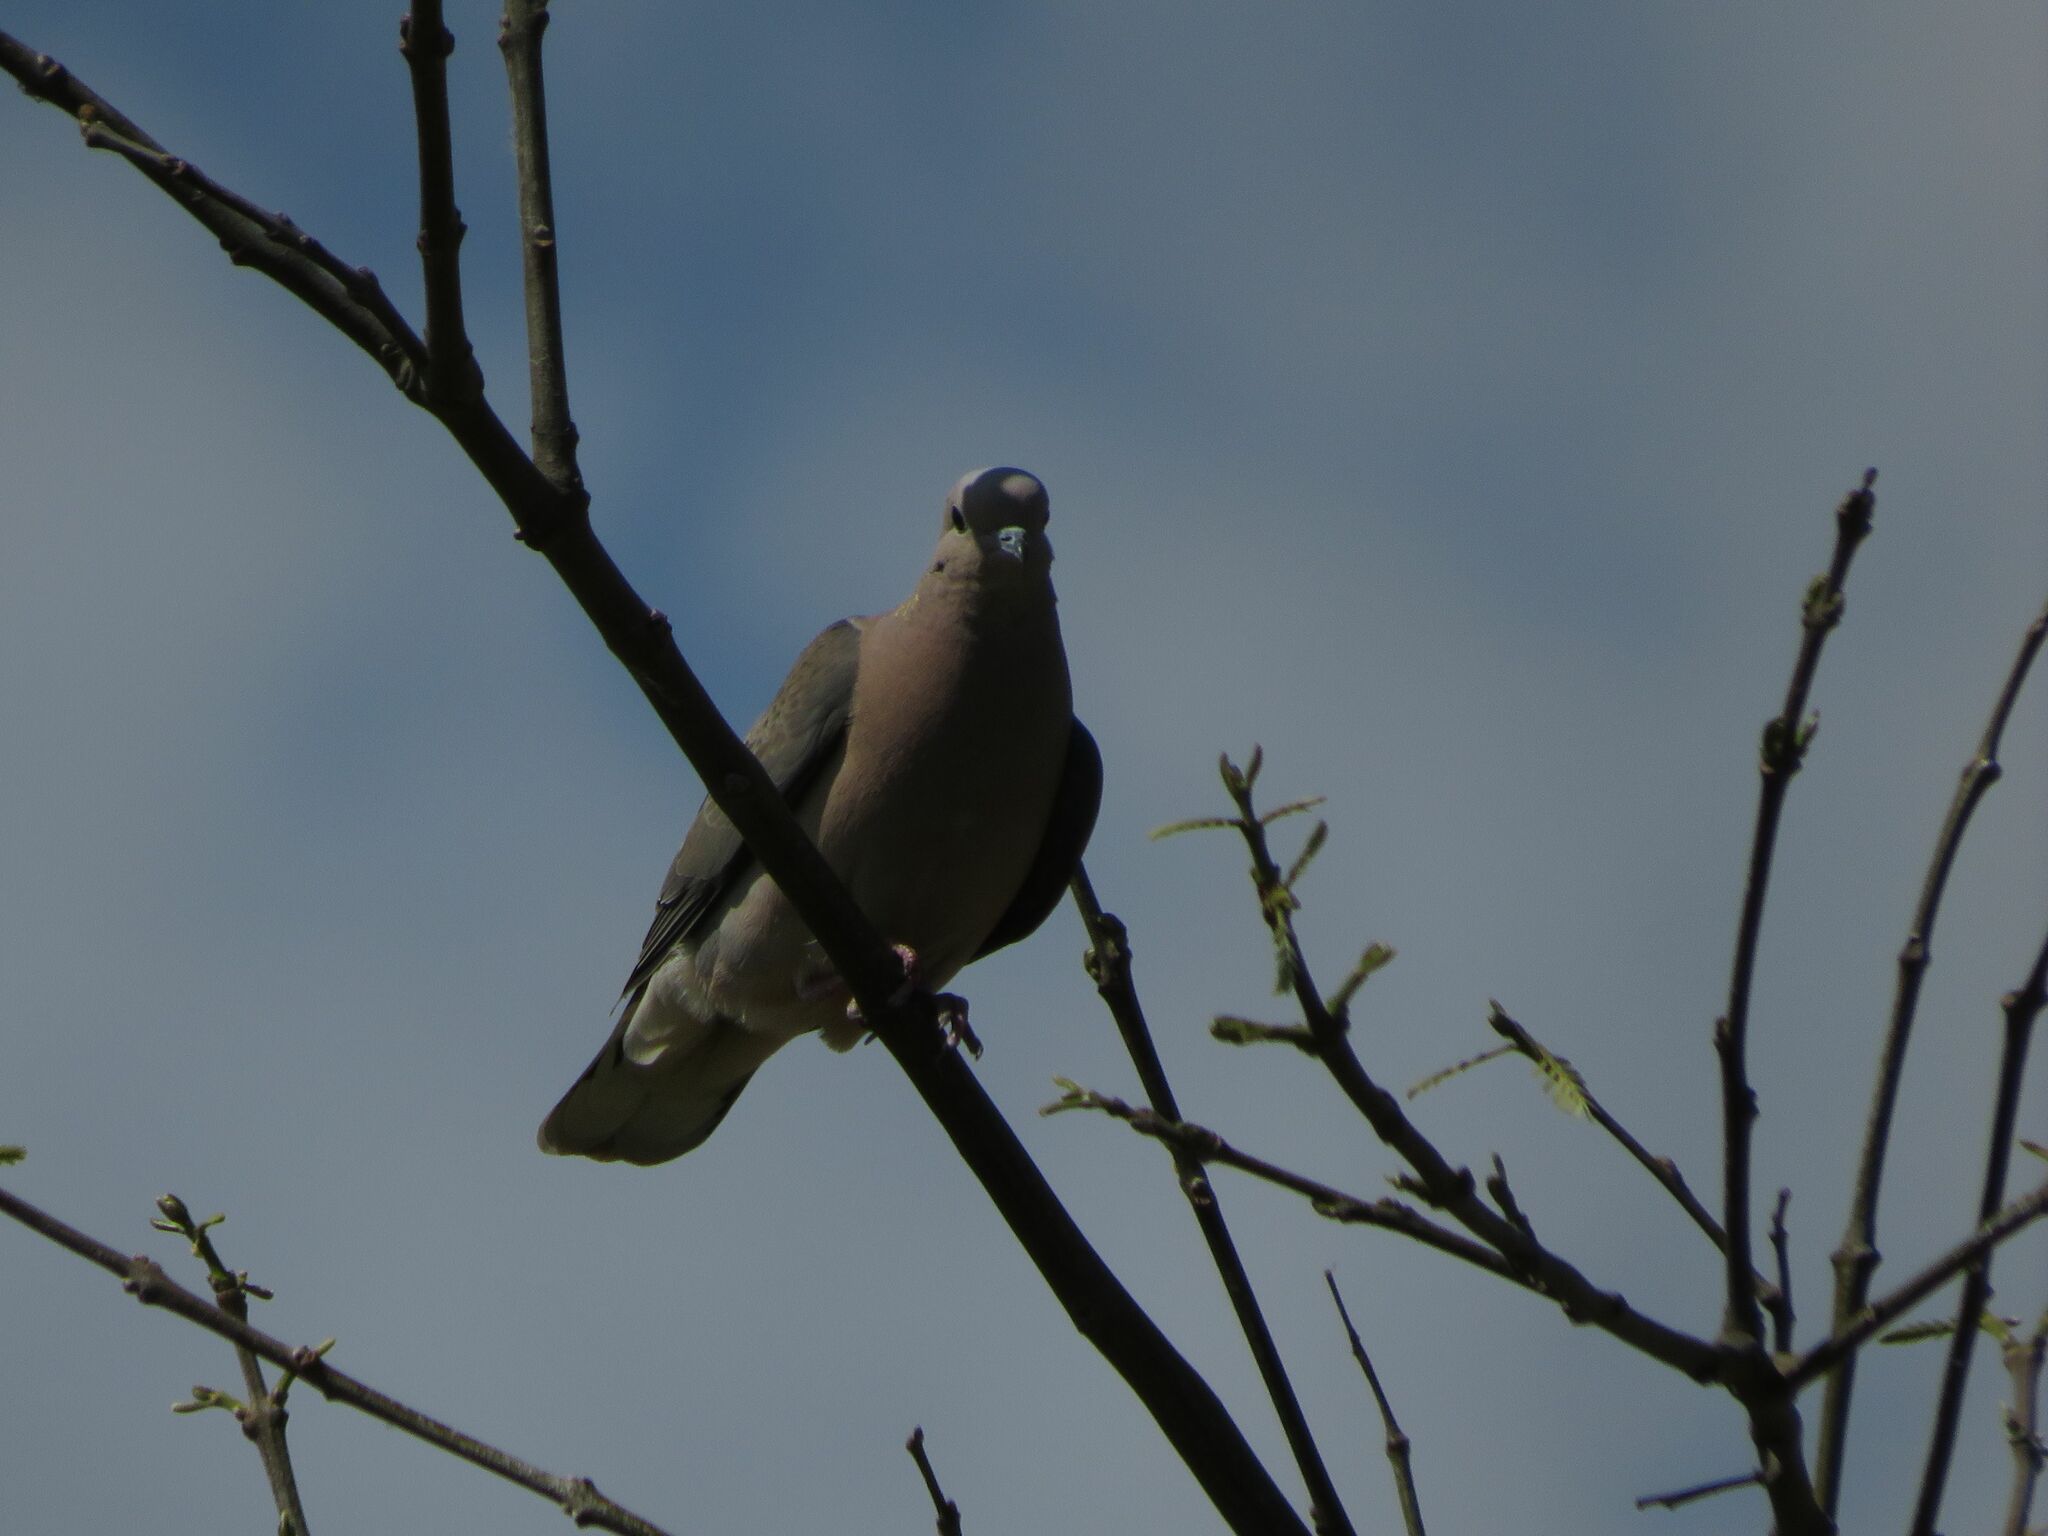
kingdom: Animalia
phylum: Chordata
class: Aves
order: Columbiformes
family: Columbidae
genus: Zenaida
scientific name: Zenaida auriculata
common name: Eared dove
